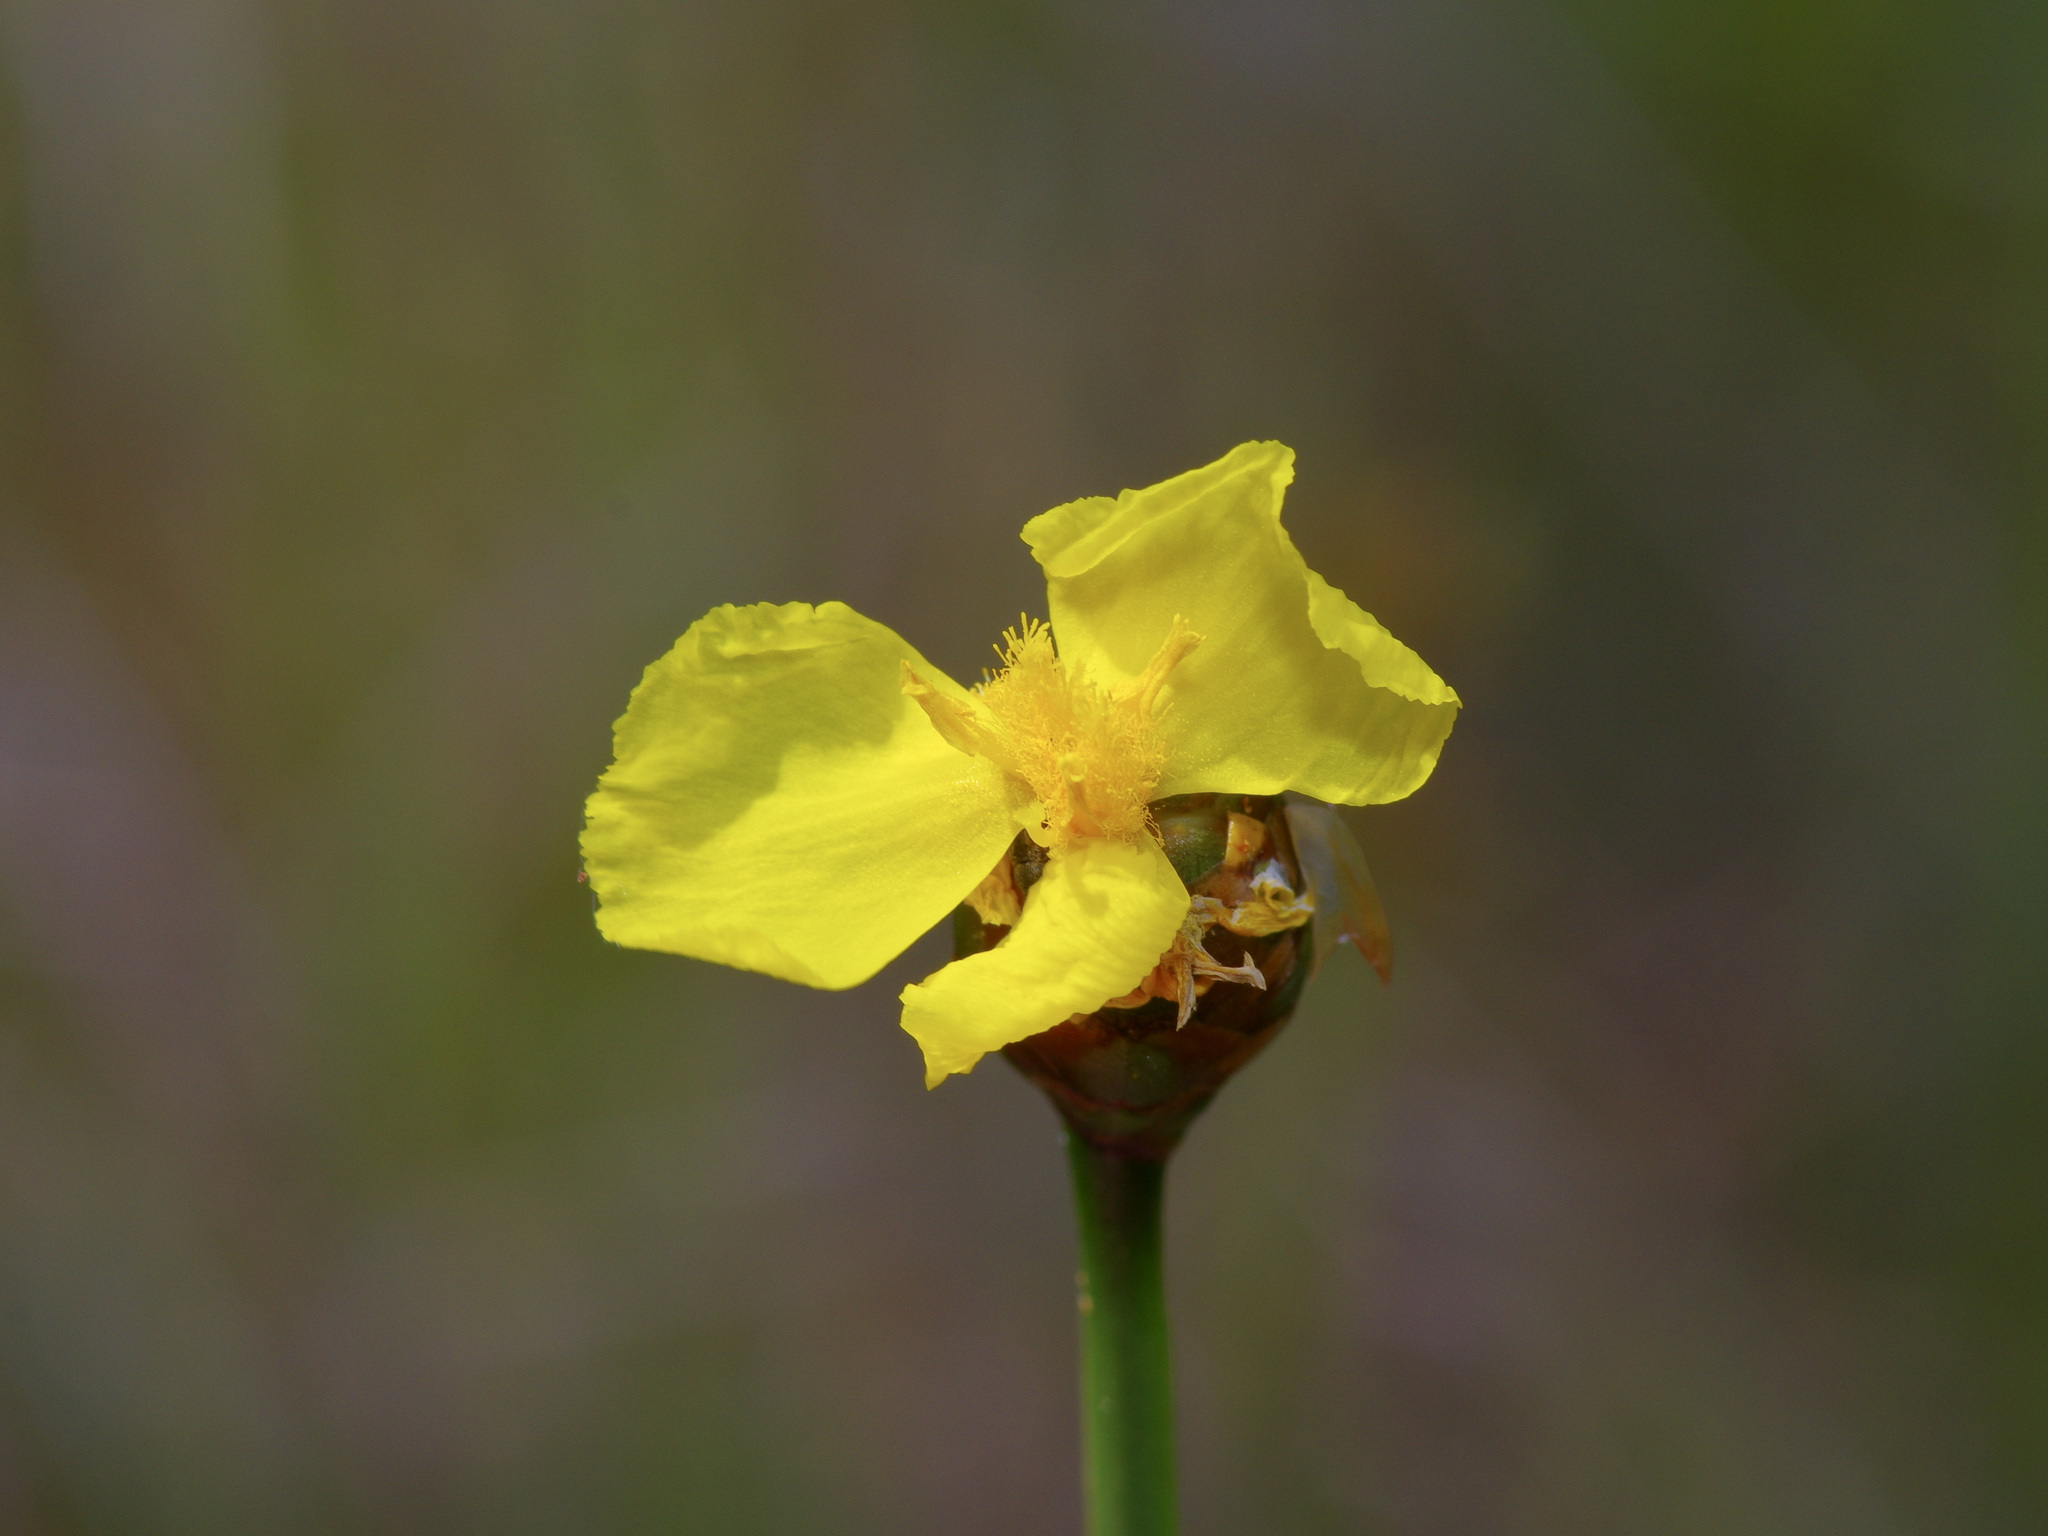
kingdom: Plantae
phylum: Tracheophyta
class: Liliopsida
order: Poales
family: Xyridaceae
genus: Xyris
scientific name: Xyris ambigua
